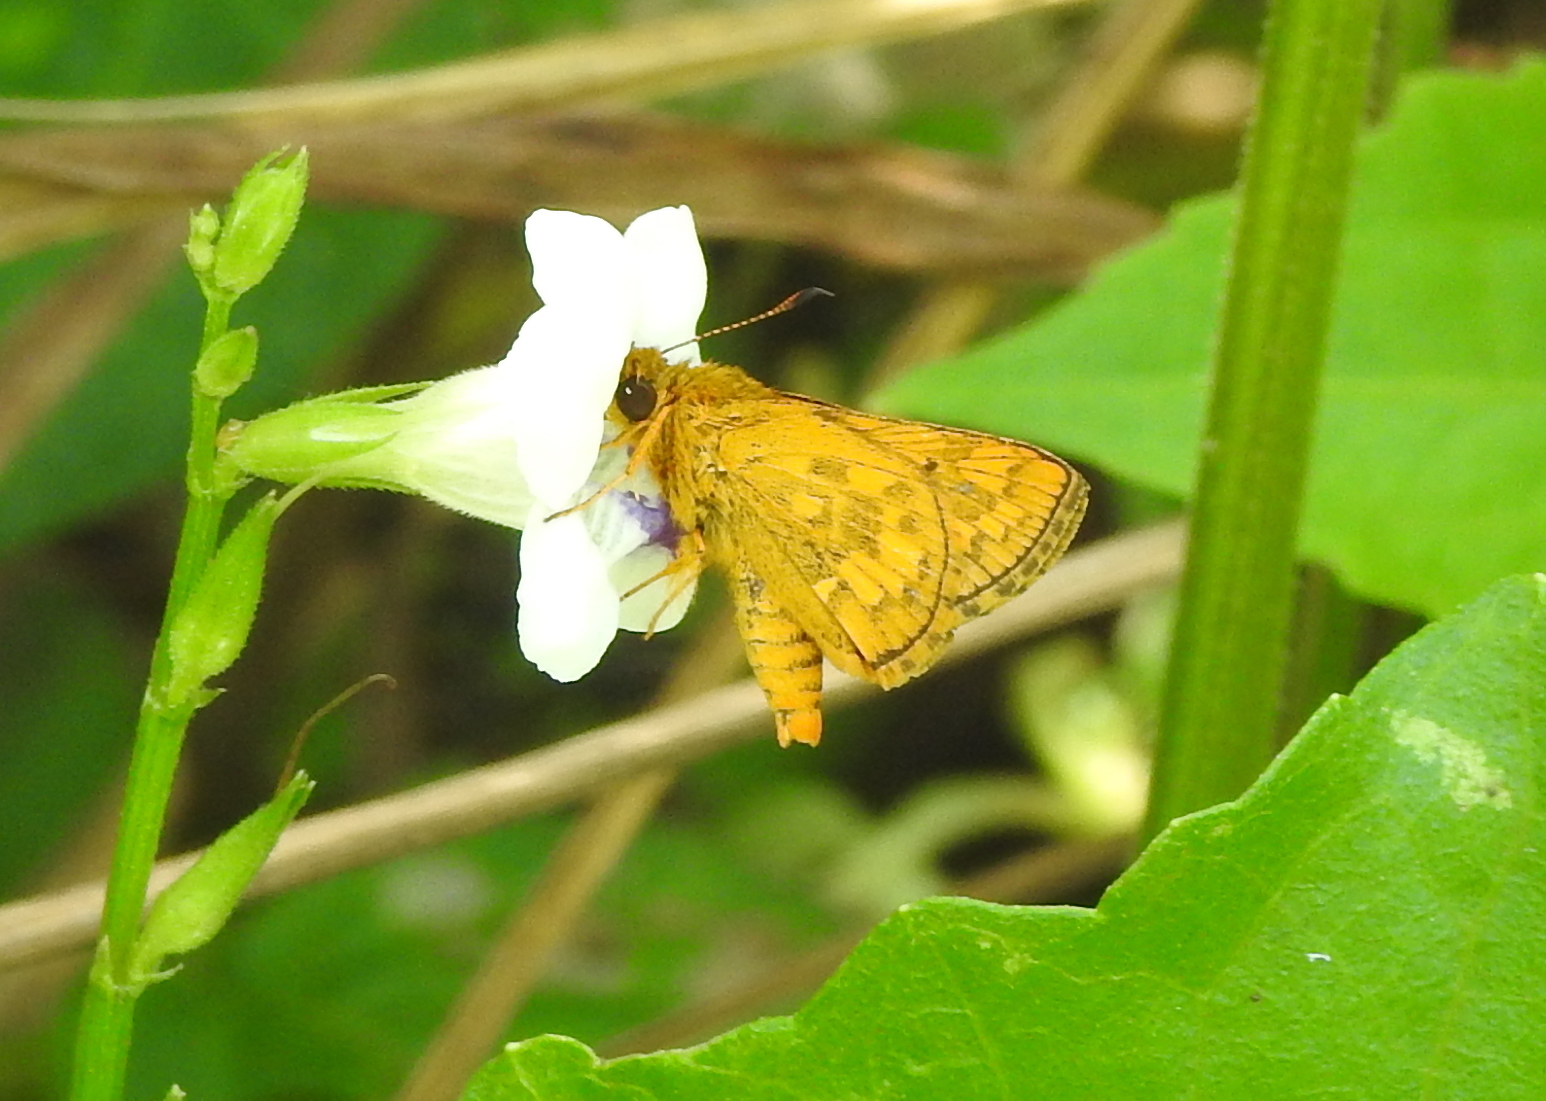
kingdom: Animalia
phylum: Arthropoda
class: Insecta
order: Lepidoptera
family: Hesperiidae
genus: Potanthus
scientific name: Potanthus omaha
